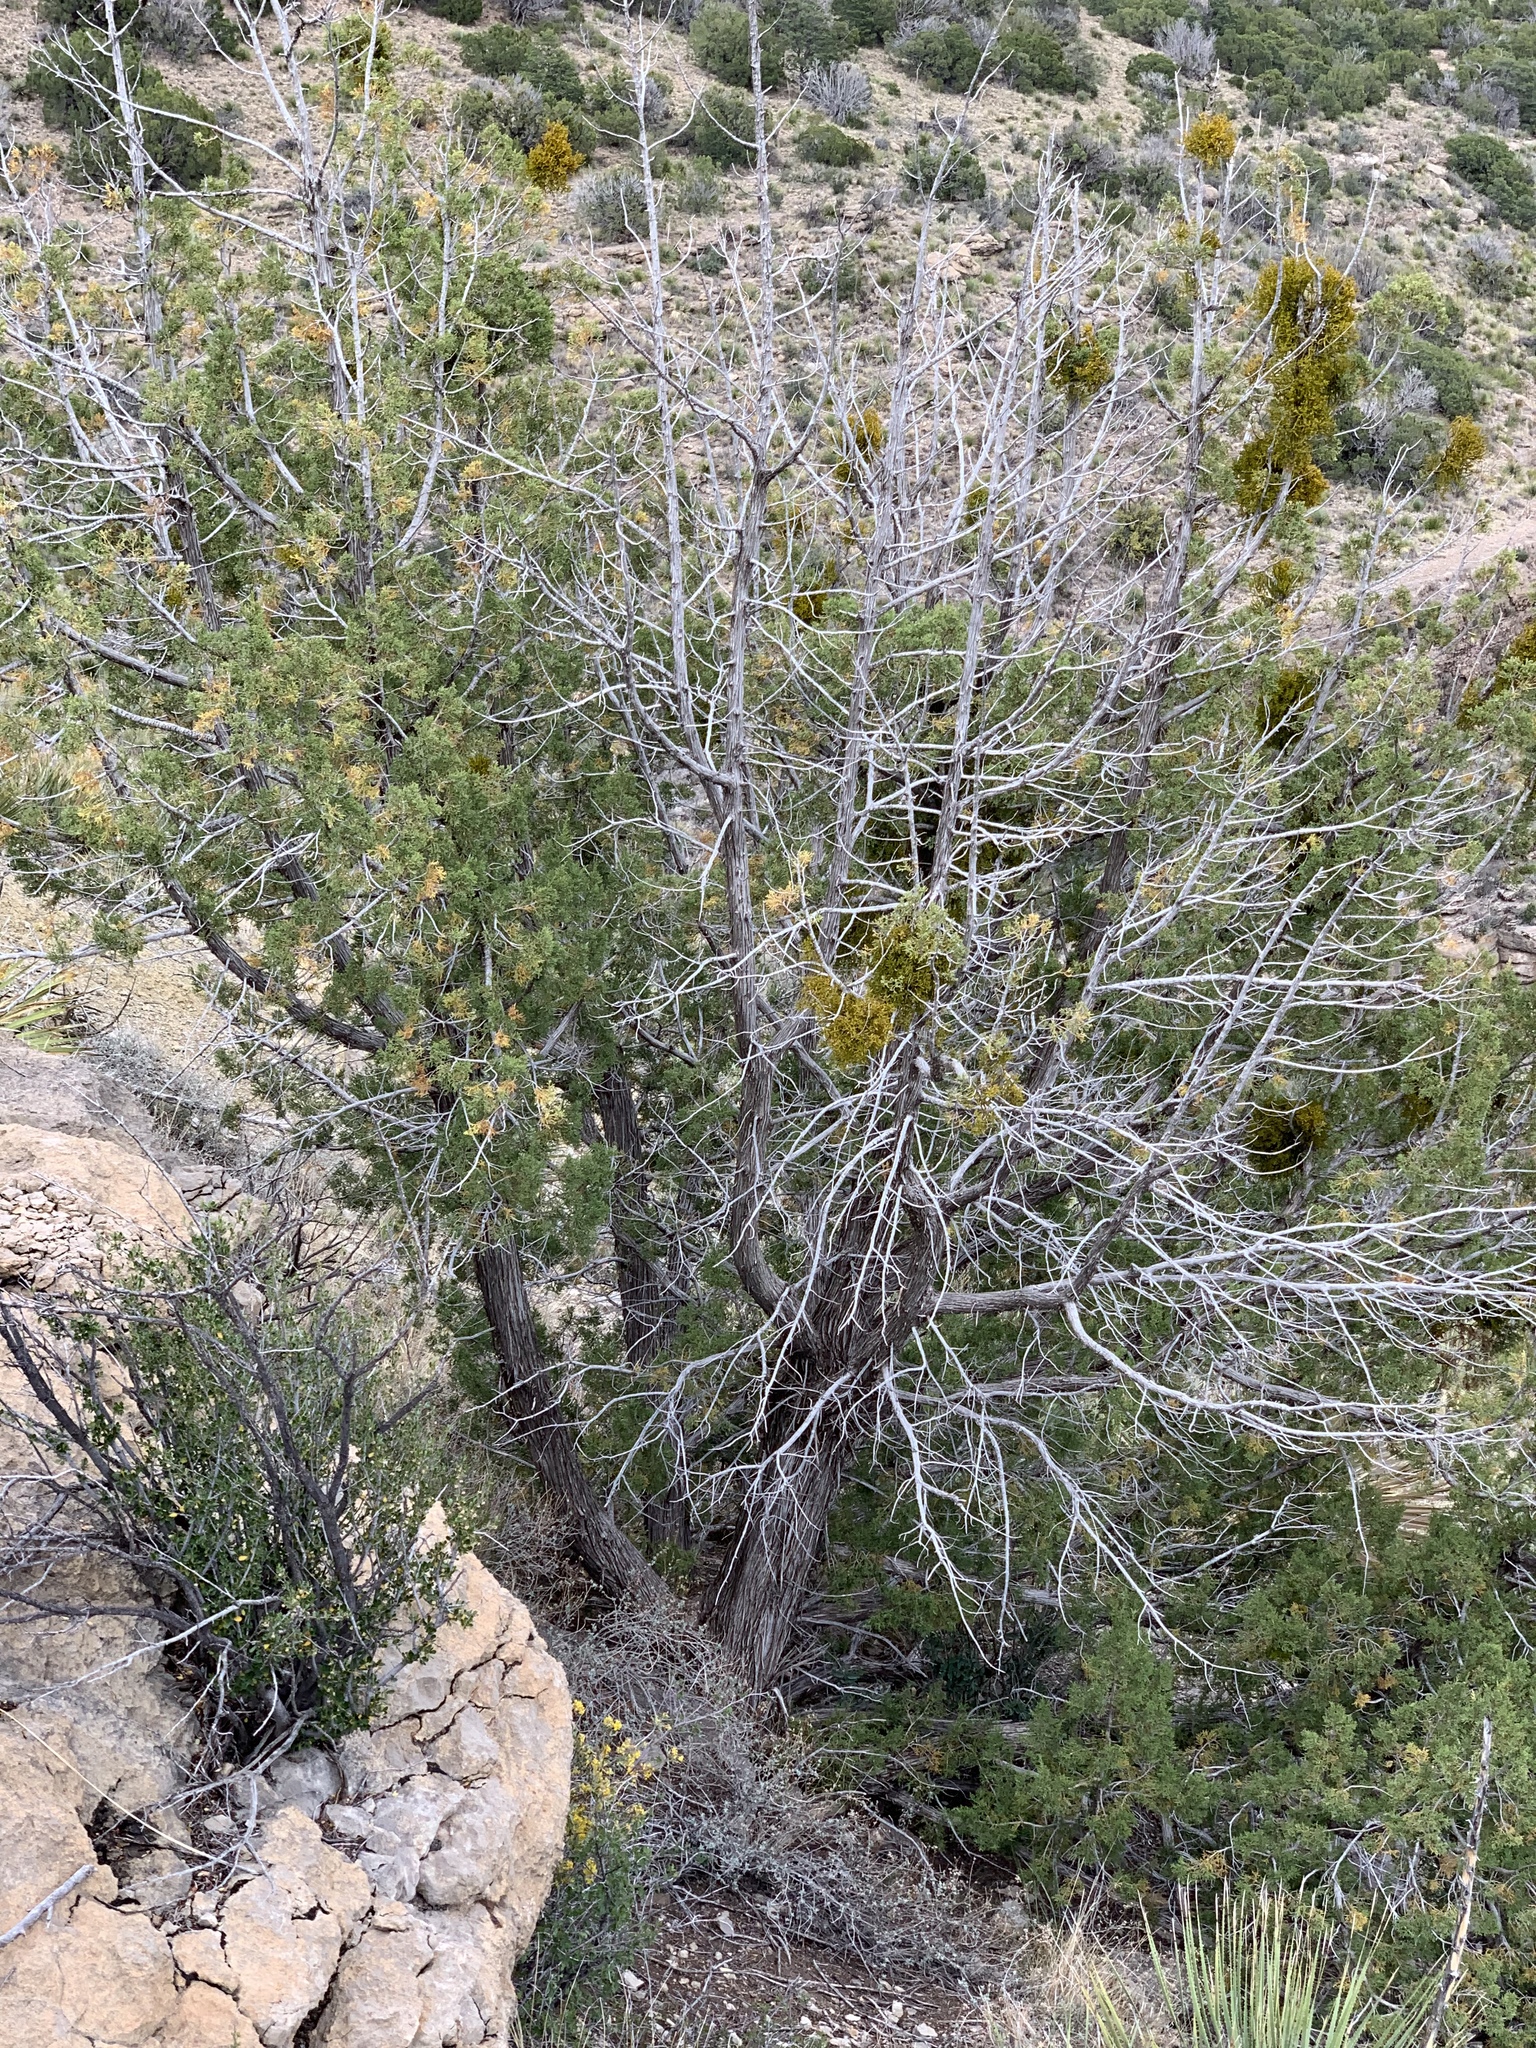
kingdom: Plantae
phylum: Tracheophyta
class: Pinopsida
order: Pinales
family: Cupressaceae
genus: Juniperus
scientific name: Juniperus monosperma
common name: One-seed juniper
